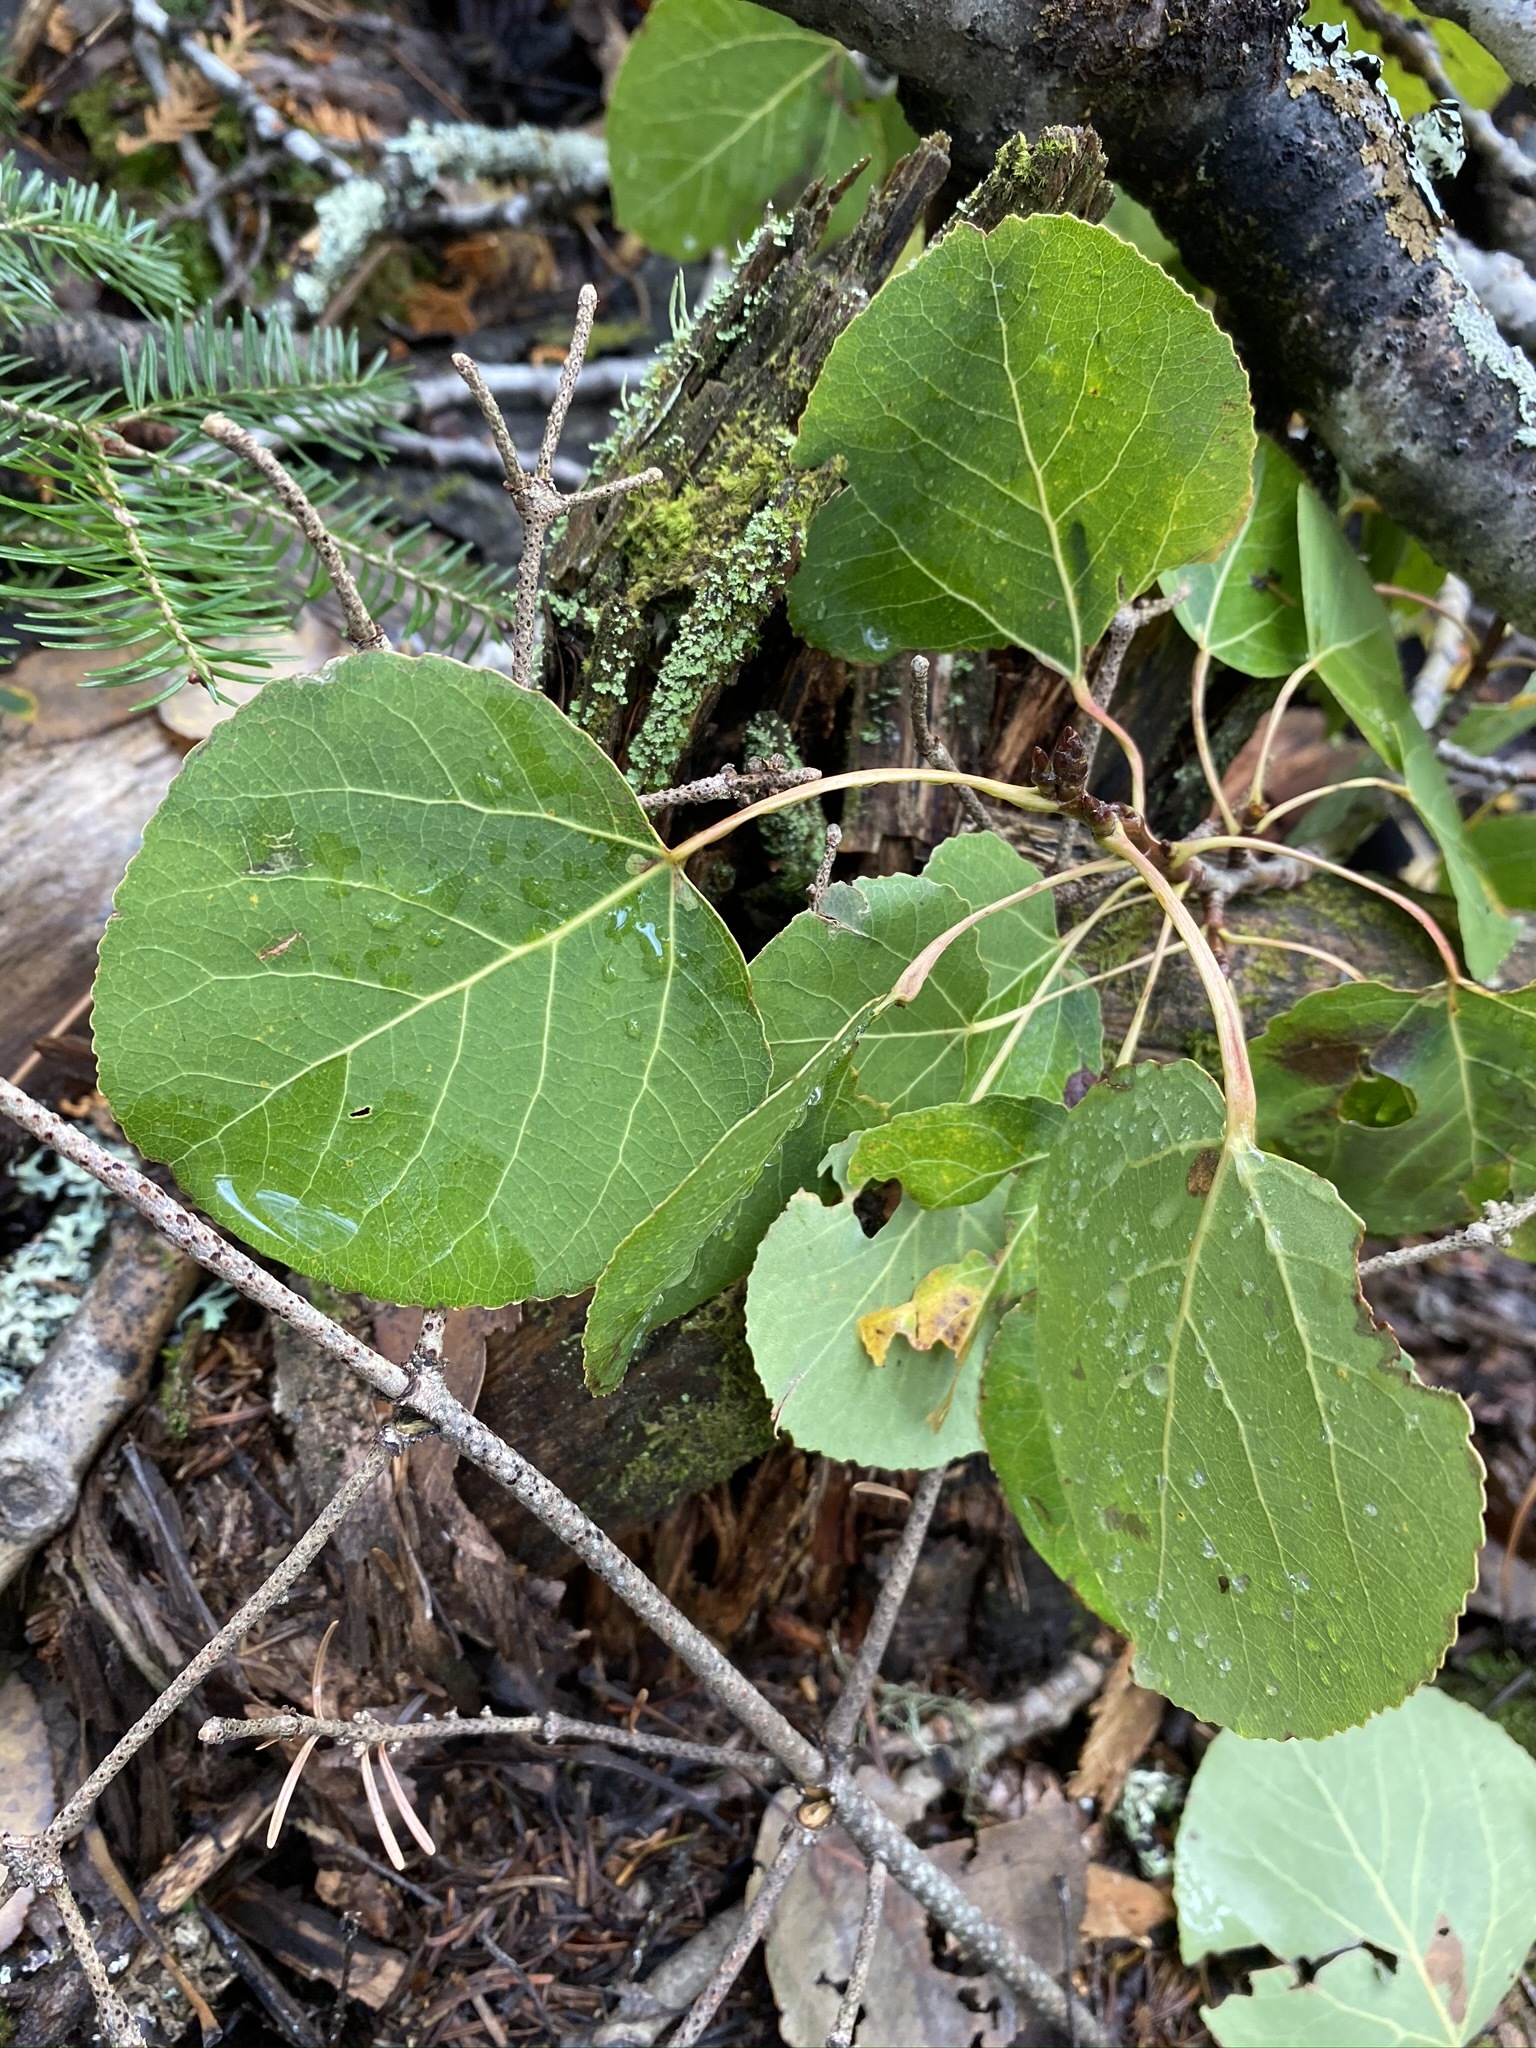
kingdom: Plantae
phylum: Tracheophyta
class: Magnoliopsida
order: Malpighiales
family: Salicaceae
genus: Populus
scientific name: Populus tremuloides
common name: Quaking aspen
